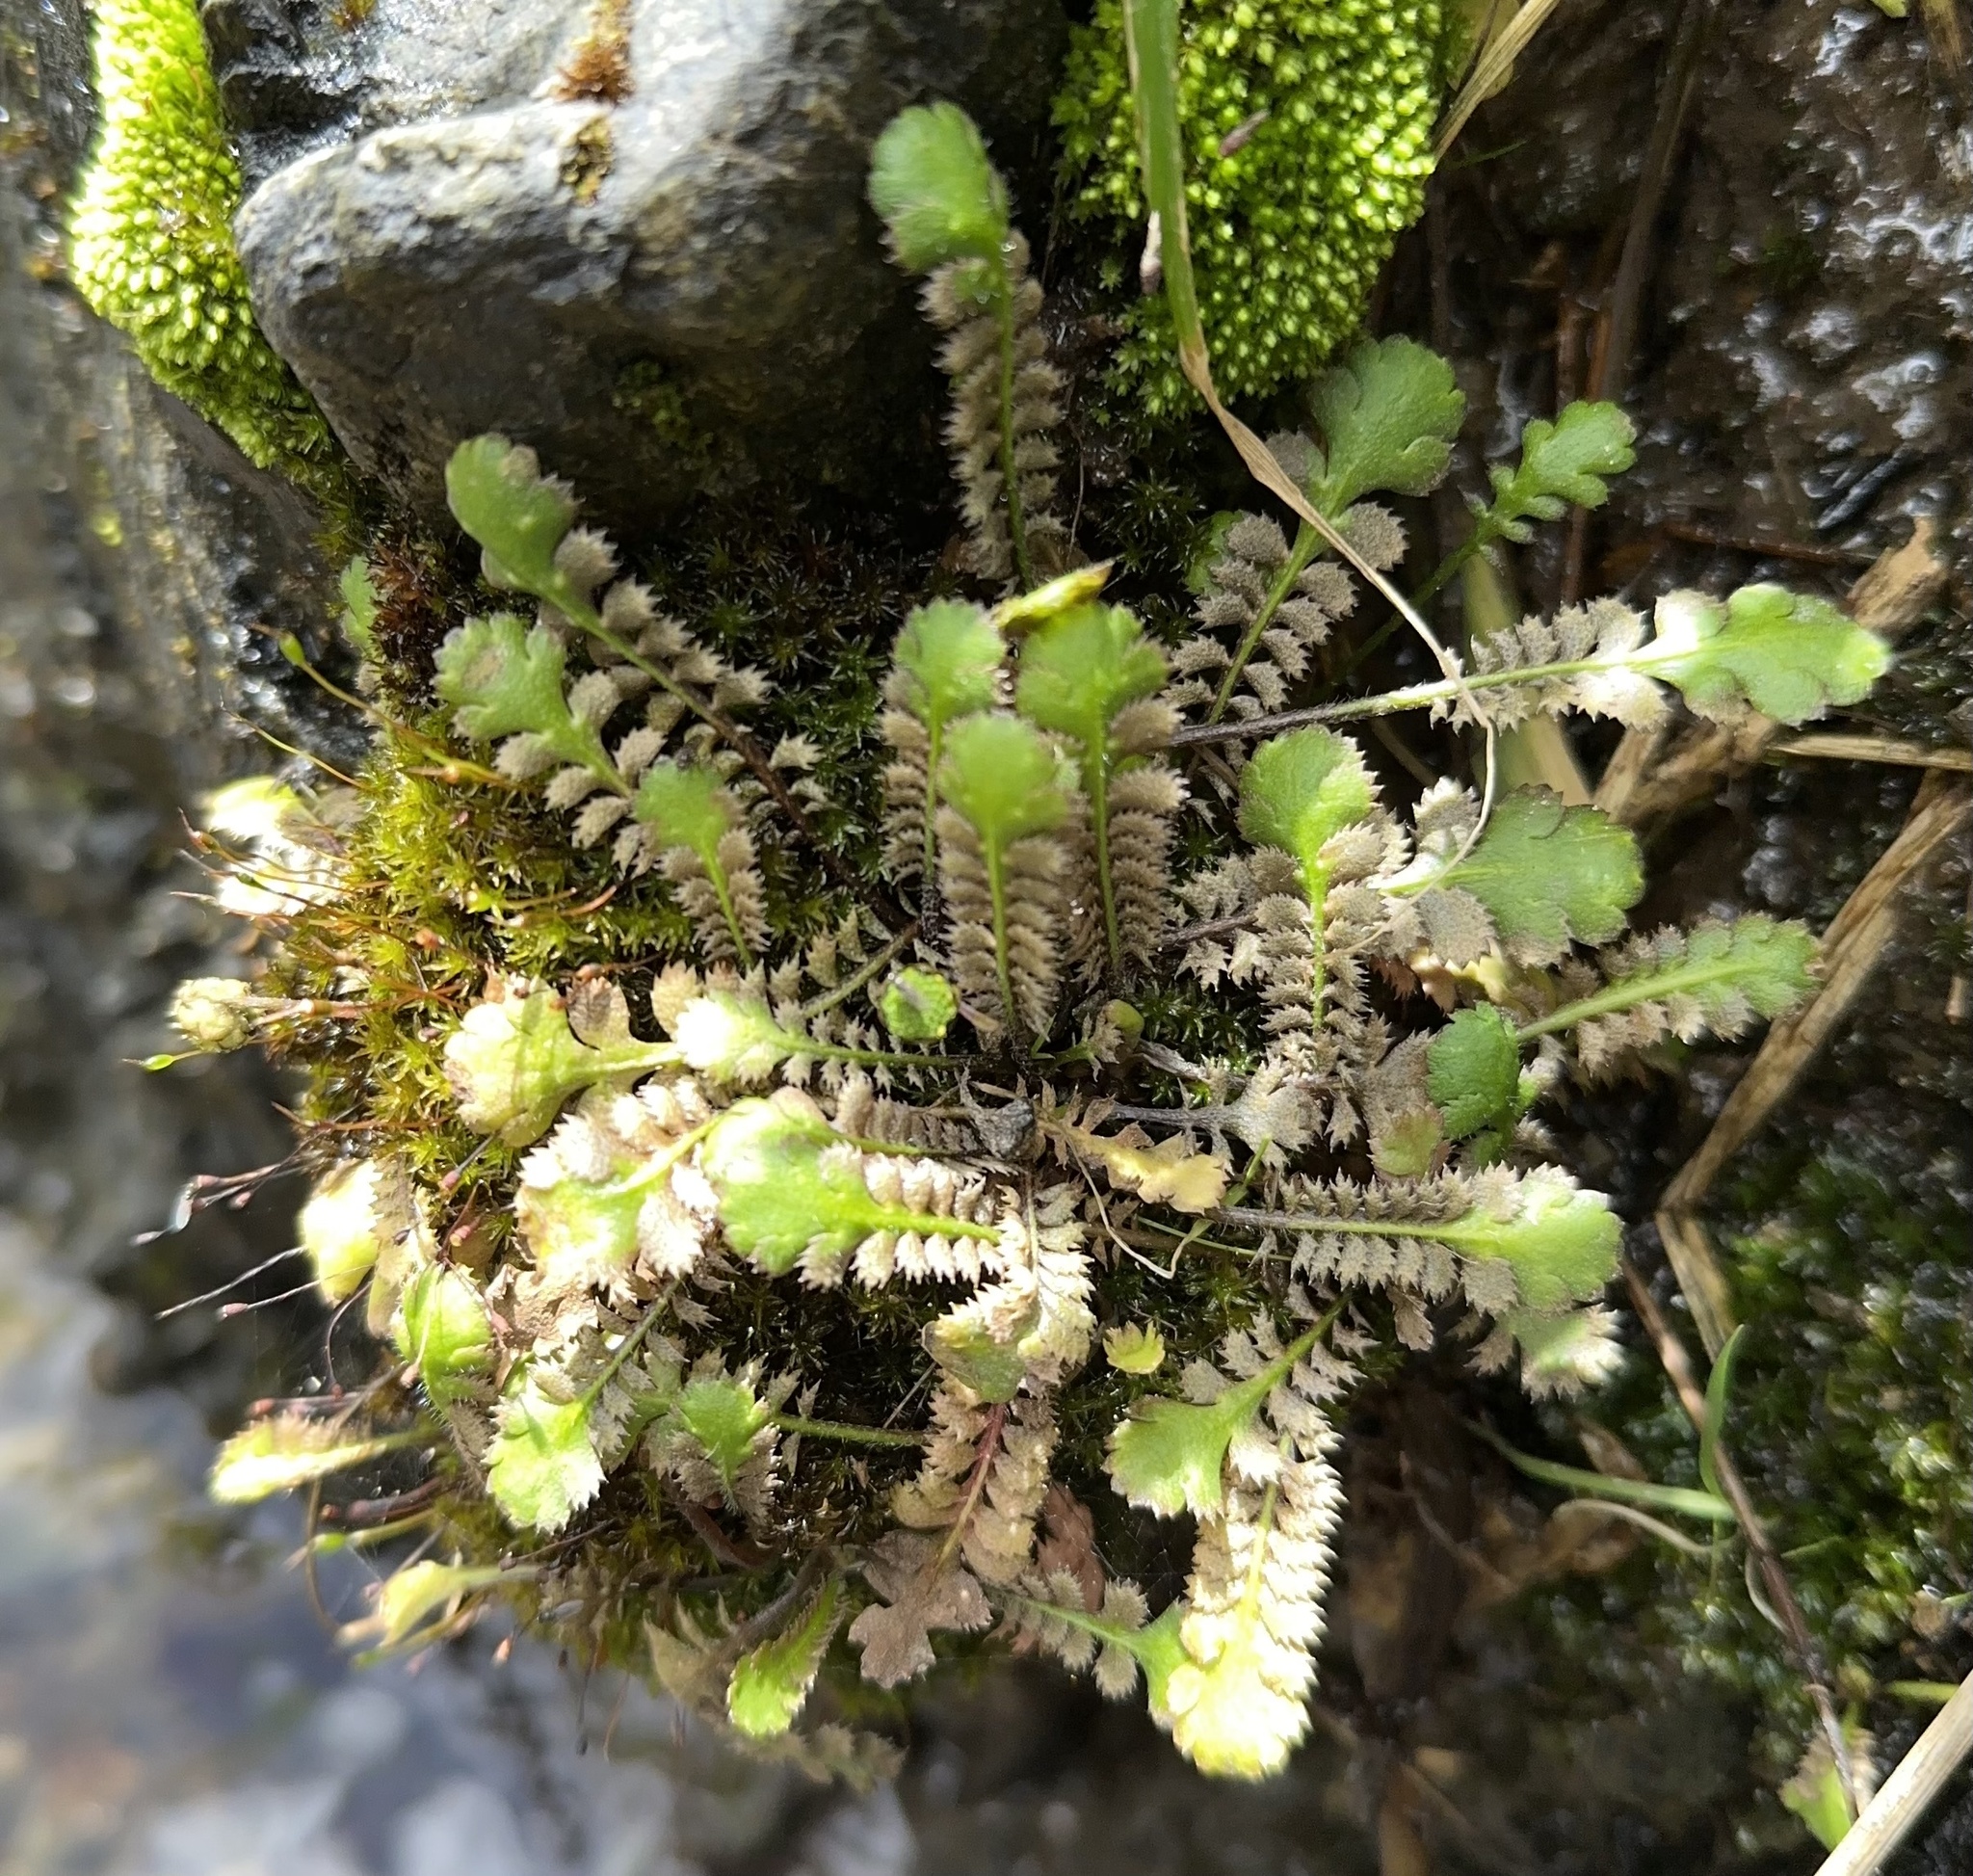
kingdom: Plantae
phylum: Tracheophyta
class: Magnoliopsida
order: Asterales
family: Asteraceae
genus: Leptinella
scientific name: Leptinella squalida
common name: New zealand brass-buttons
